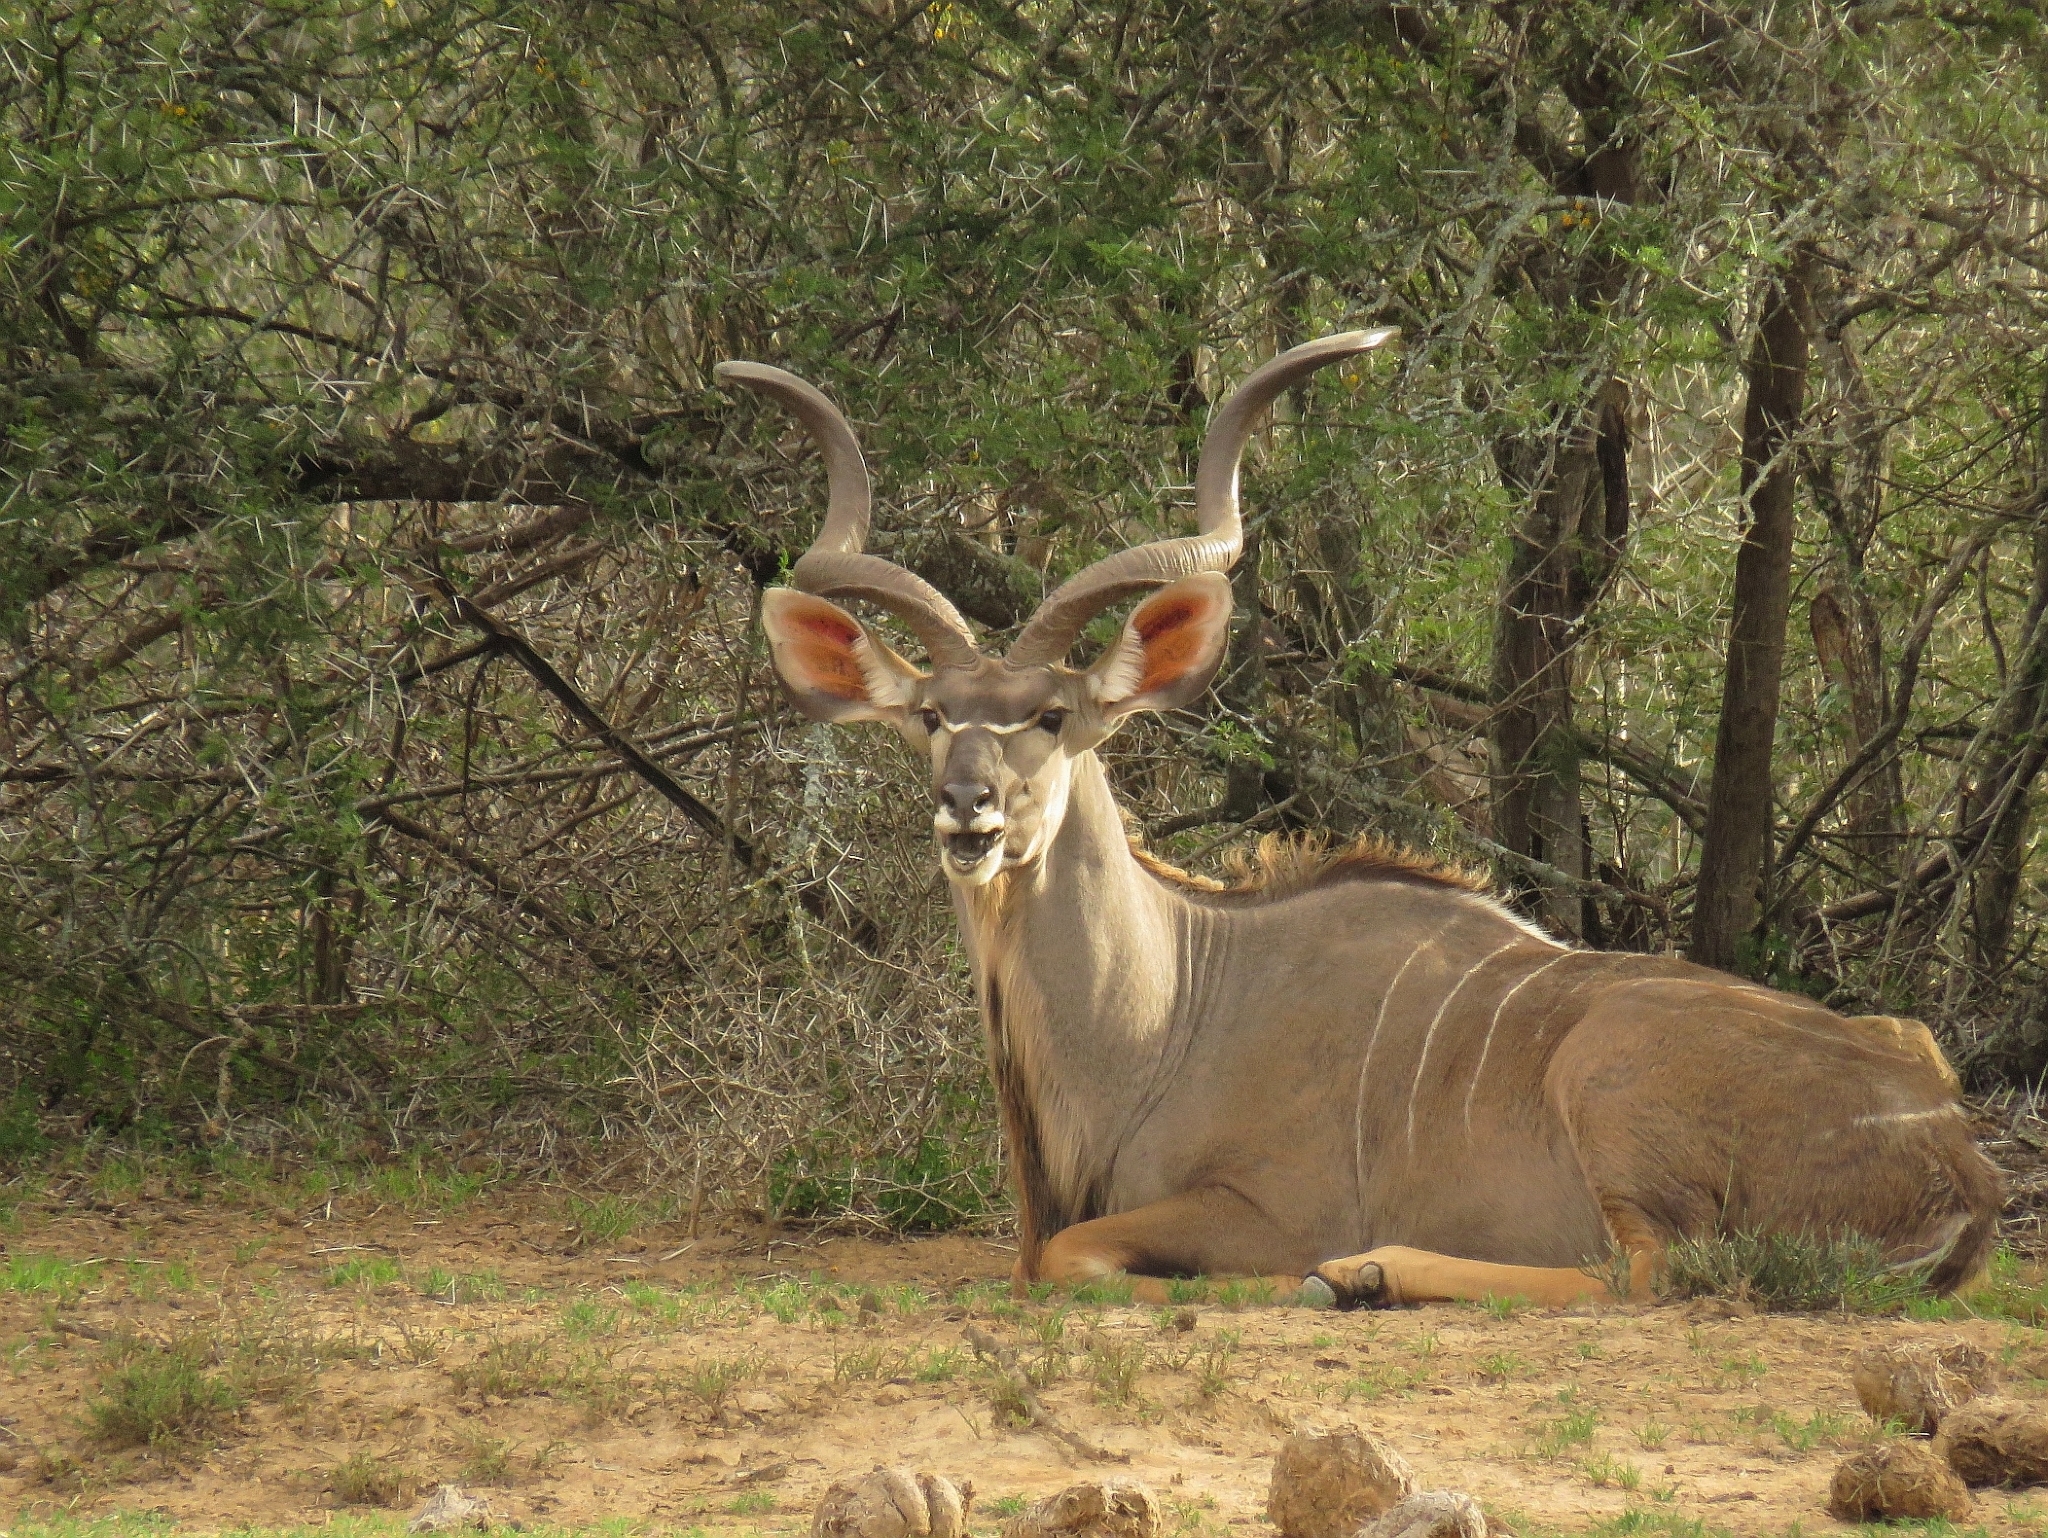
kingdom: Animalia
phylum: Chordata
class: Mammalia
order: Artiodactyla
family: Bovidae
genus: Tragelaphus
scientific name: Tragelaphus strepsiceros
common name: Greater kudu
